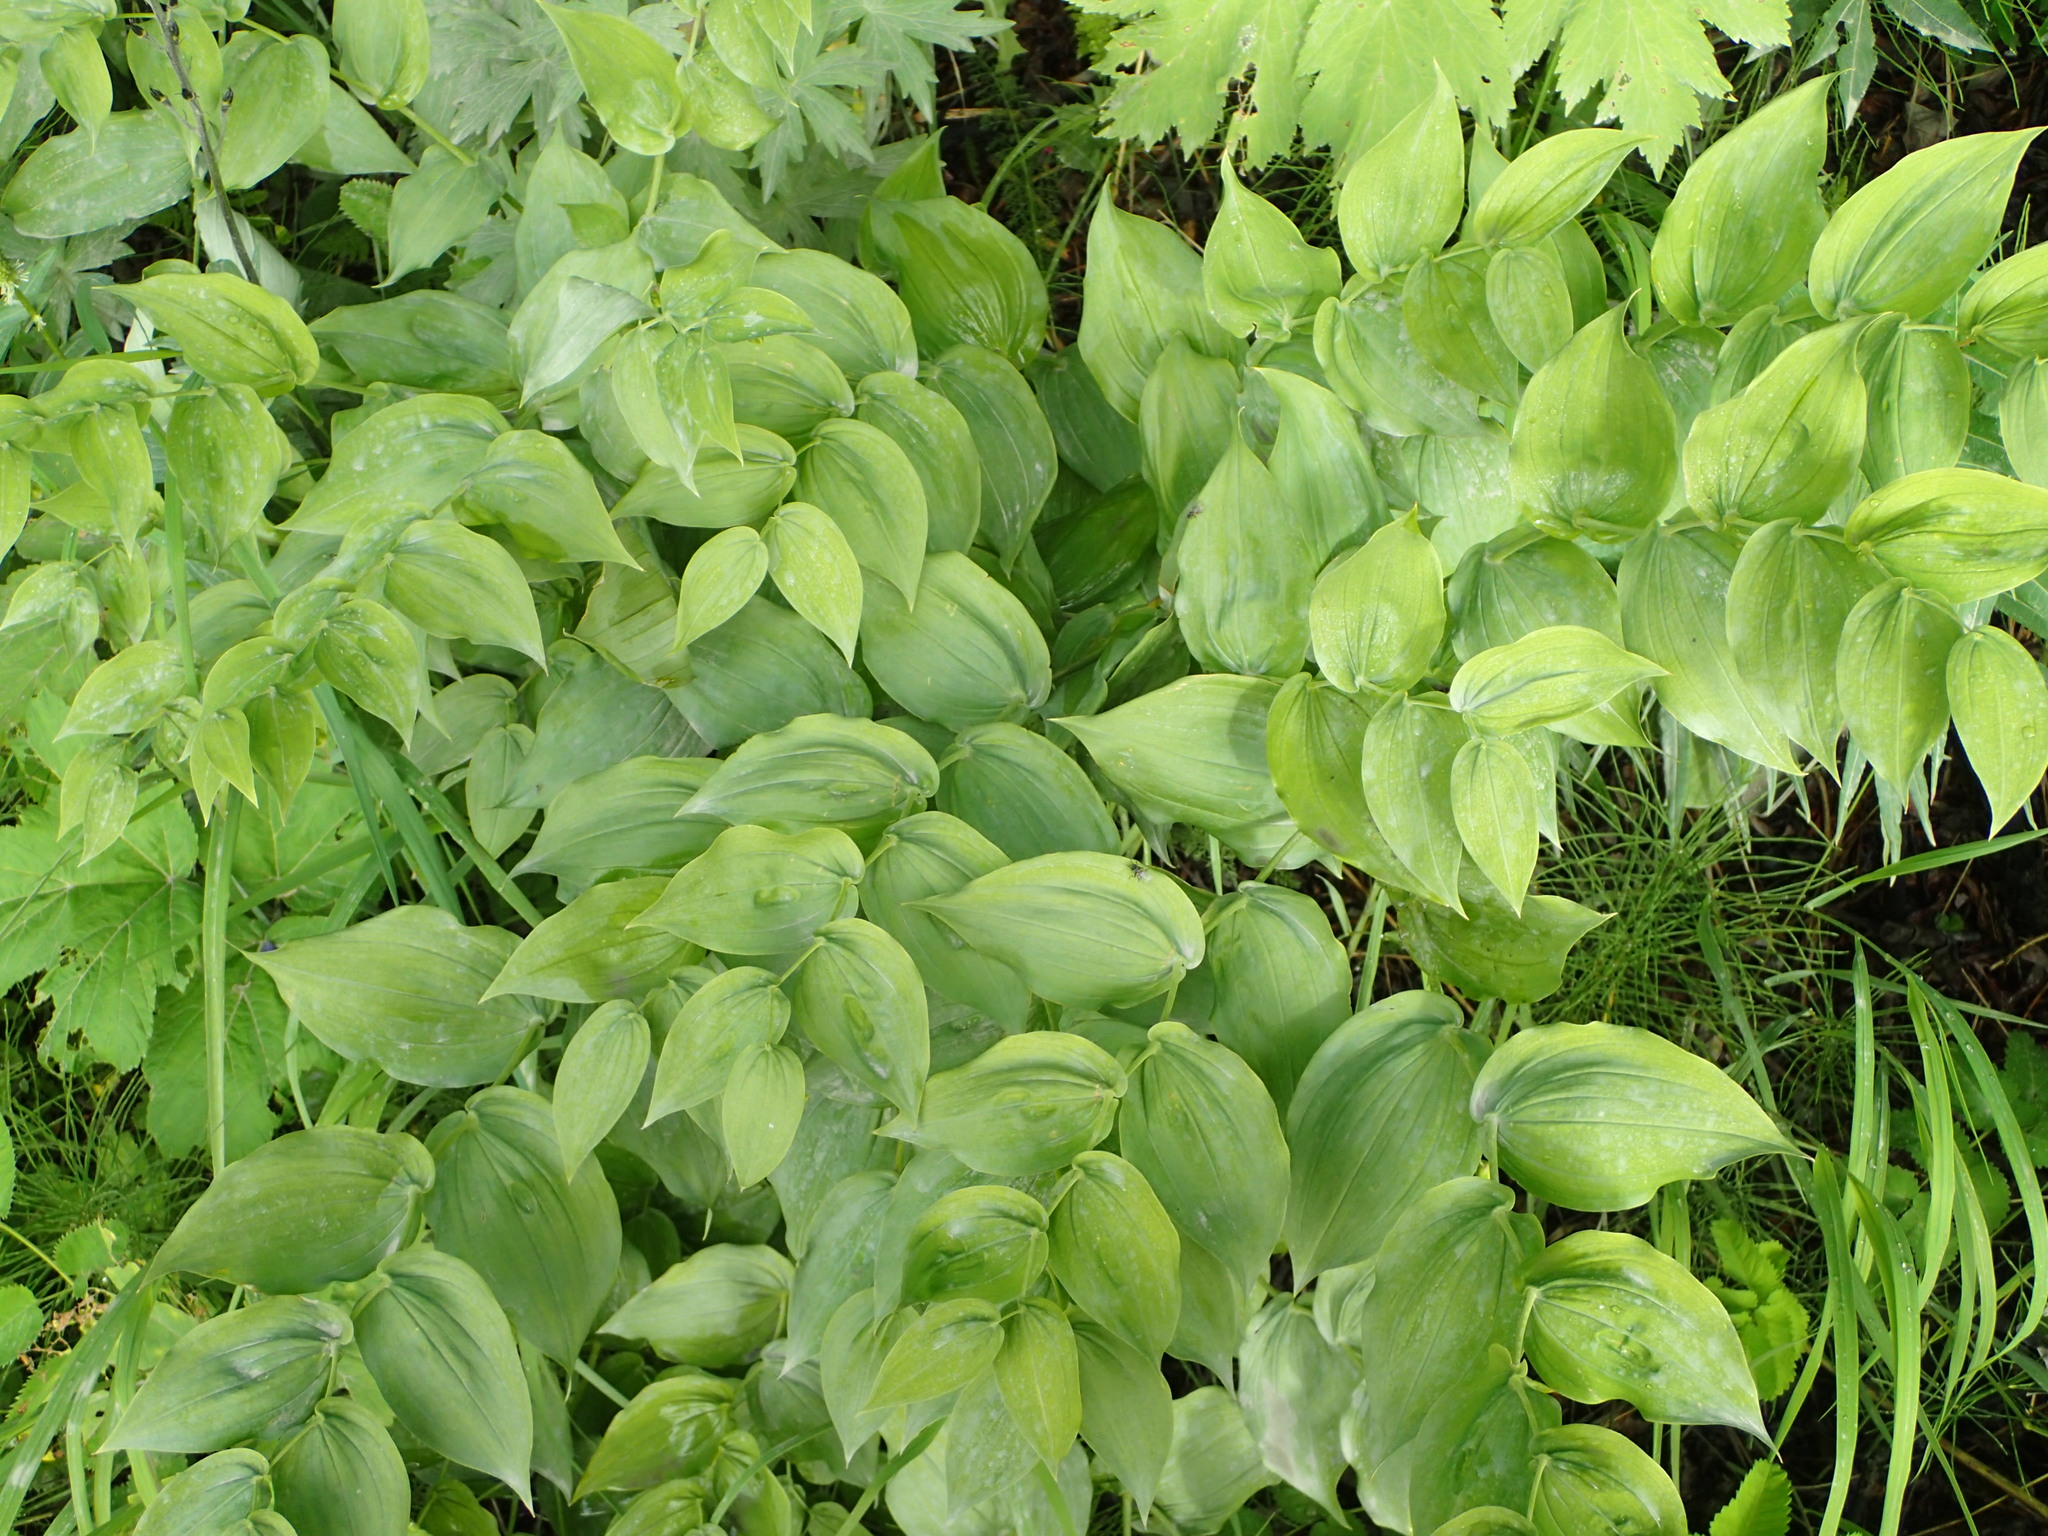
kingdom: Plantae
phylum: Tracheophyta
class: Liliopsida
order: Liliales
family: Liliaceae
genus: Streptopus
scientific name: Streptopus amplexifolius
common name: Clasp twisted stalk
